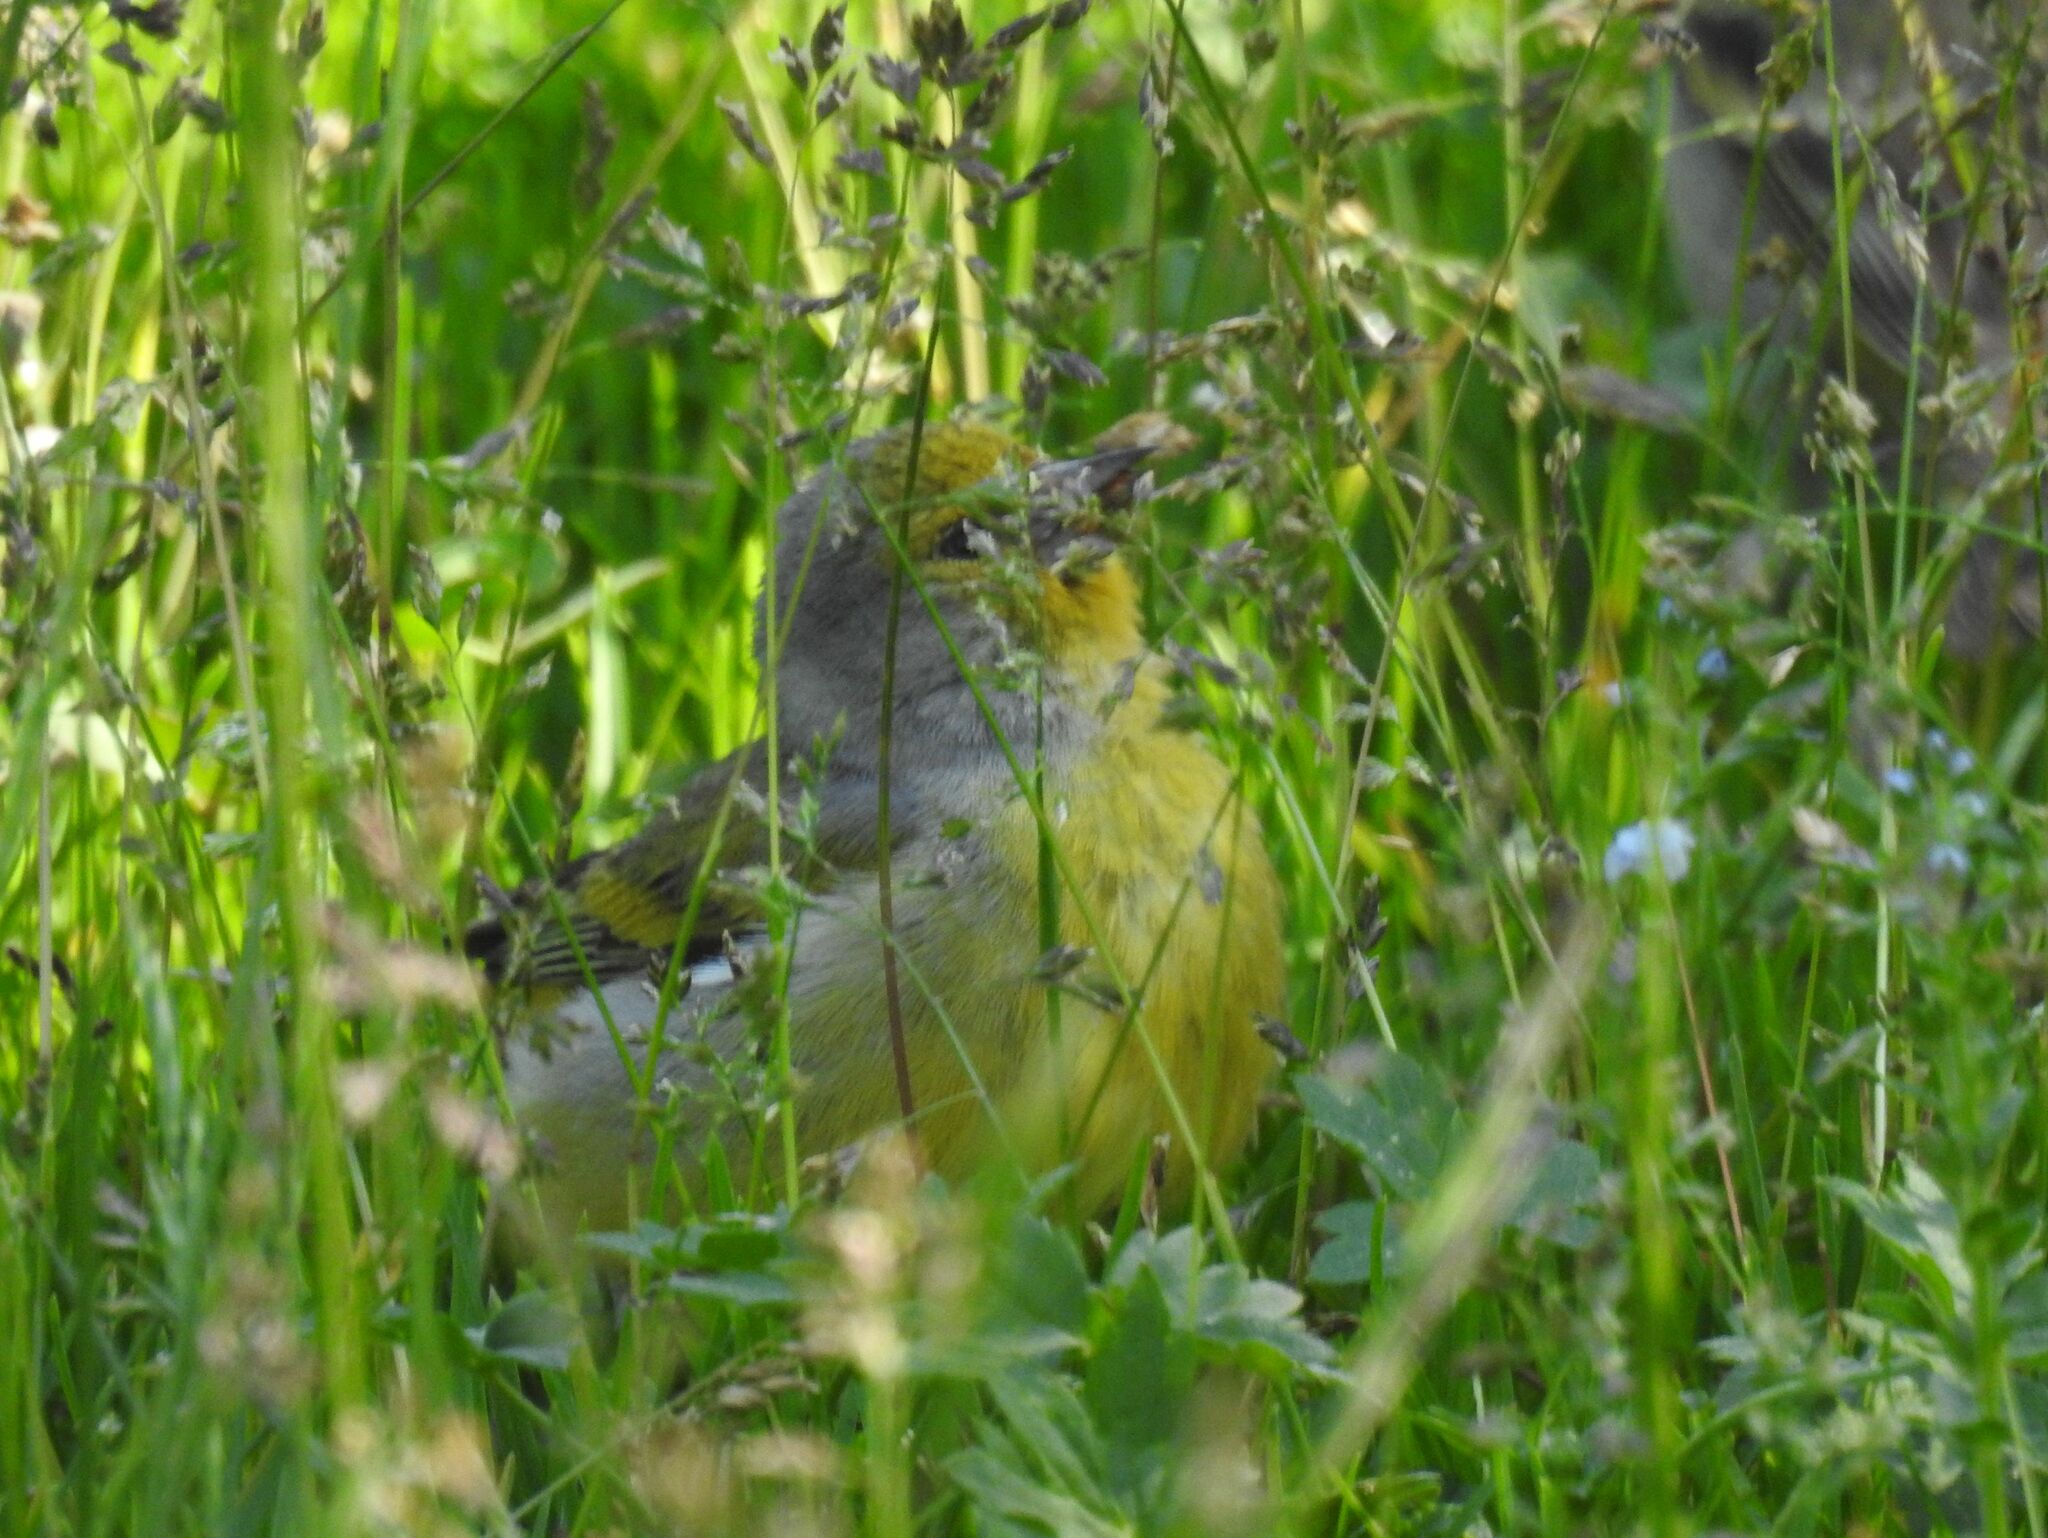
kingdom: Animalia
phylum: Chordata
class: Aves
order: Passeriformes
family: Fringillidae
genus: Carduelis
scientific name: Carduelis citrinella
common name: Citril finch
